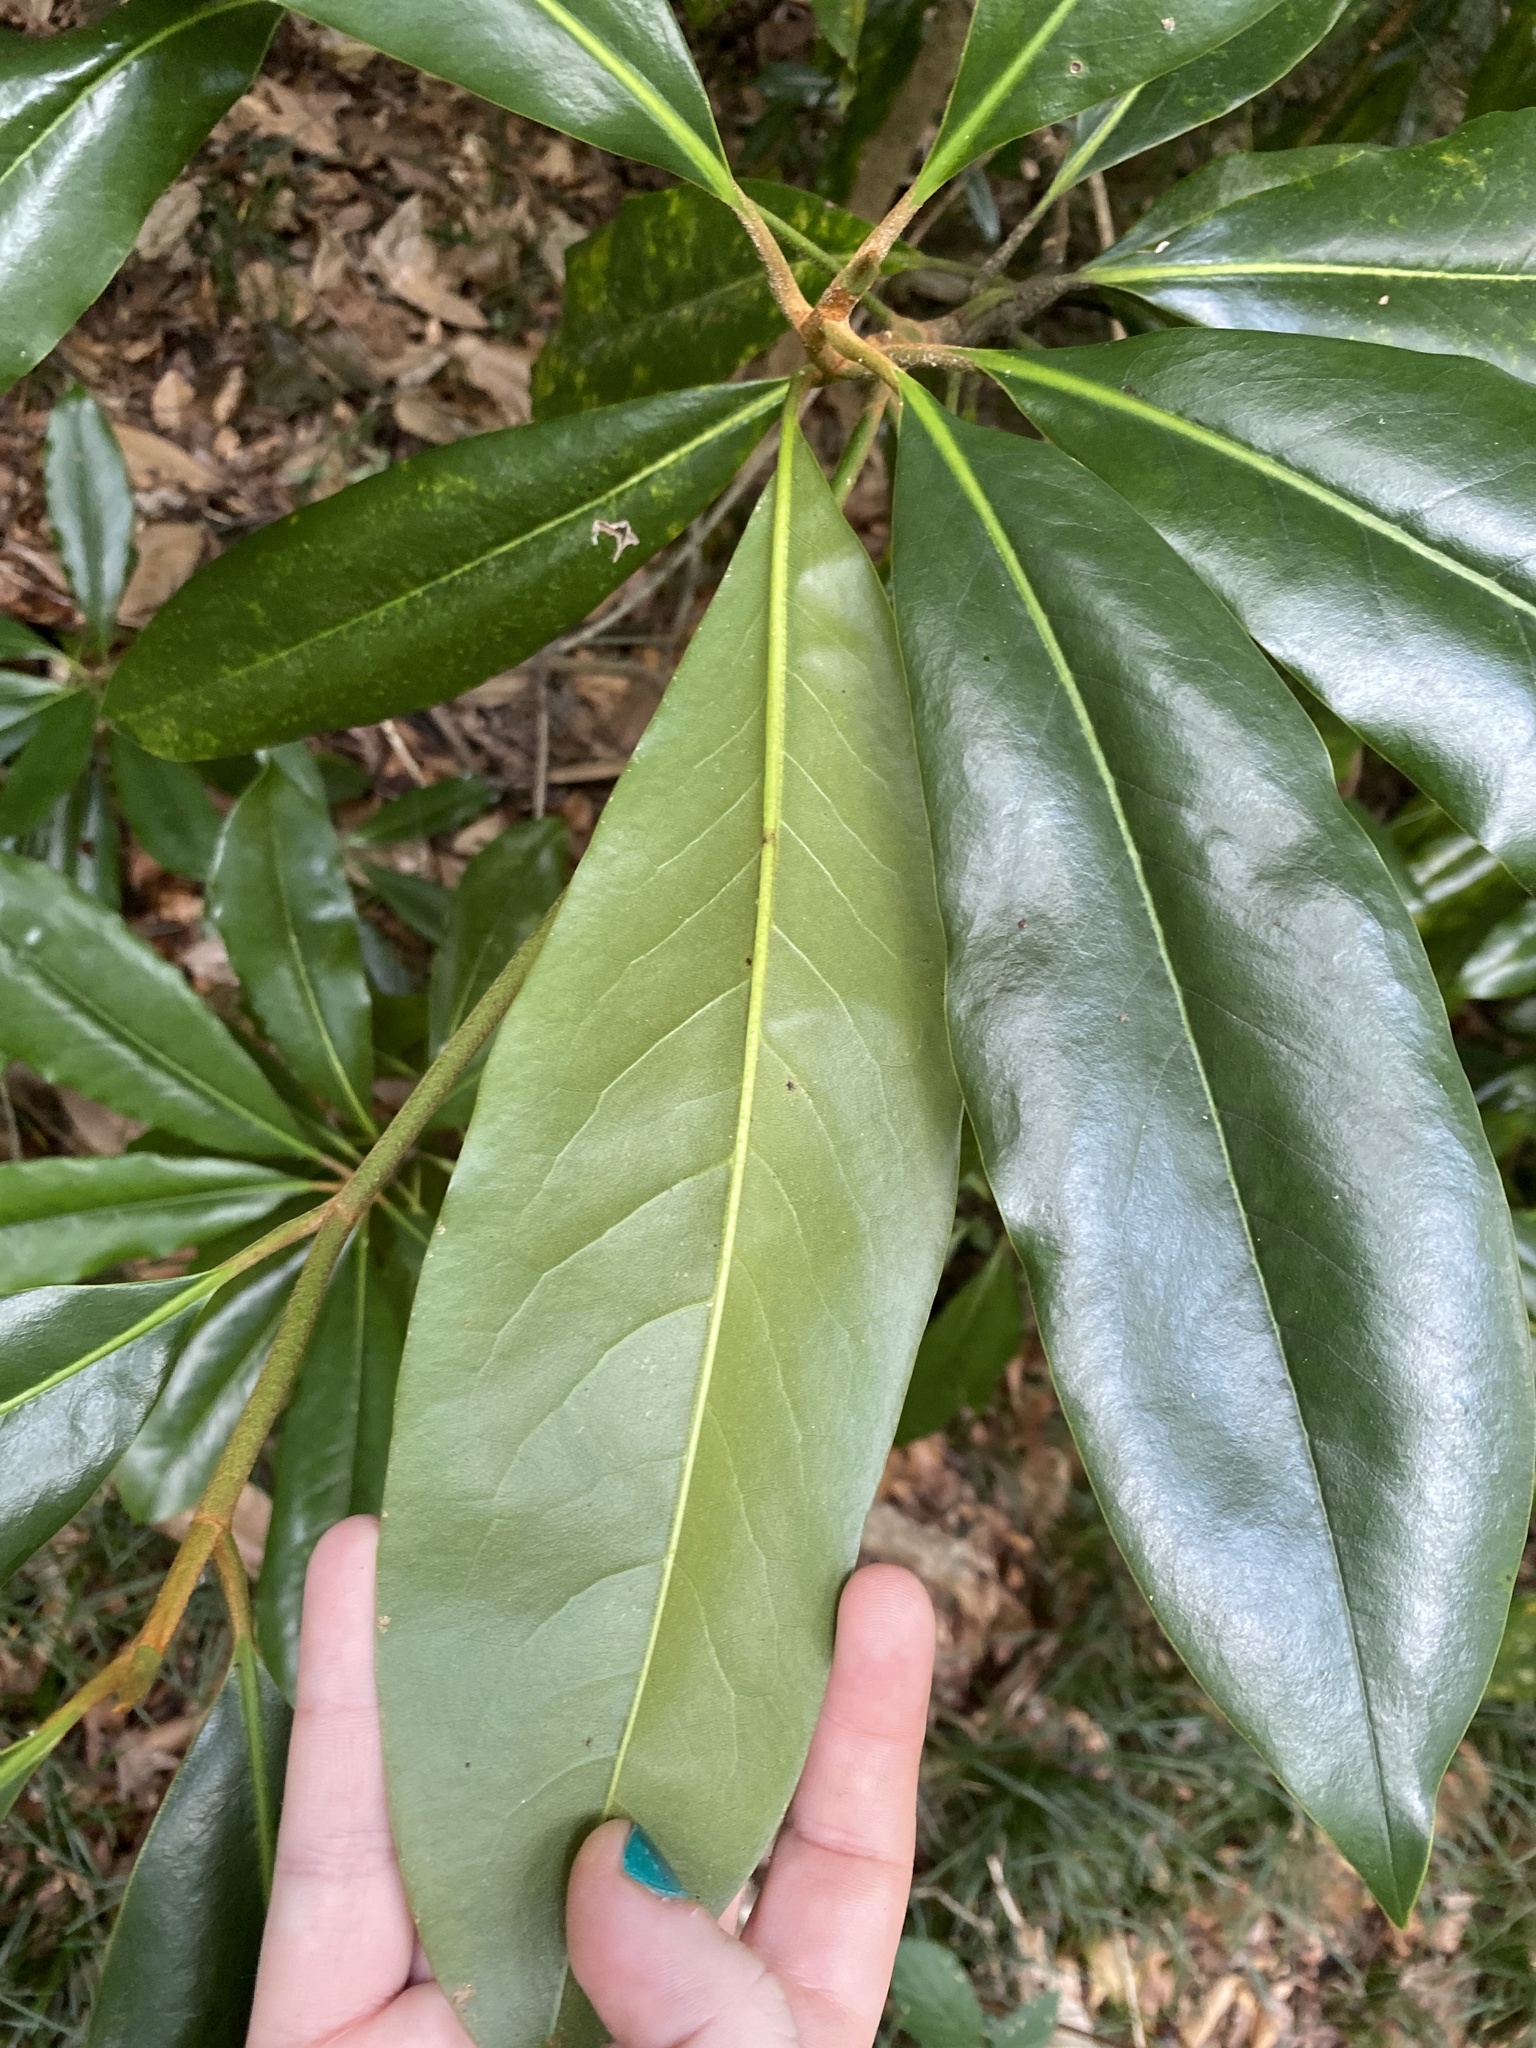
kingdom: Plantae
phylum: Tracheophyta
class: Magnoliopsida
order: Magnoliales
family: Magnoliaceae
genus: Magnolia
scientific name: Magnolia grandiflora
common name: Southern magnolia
